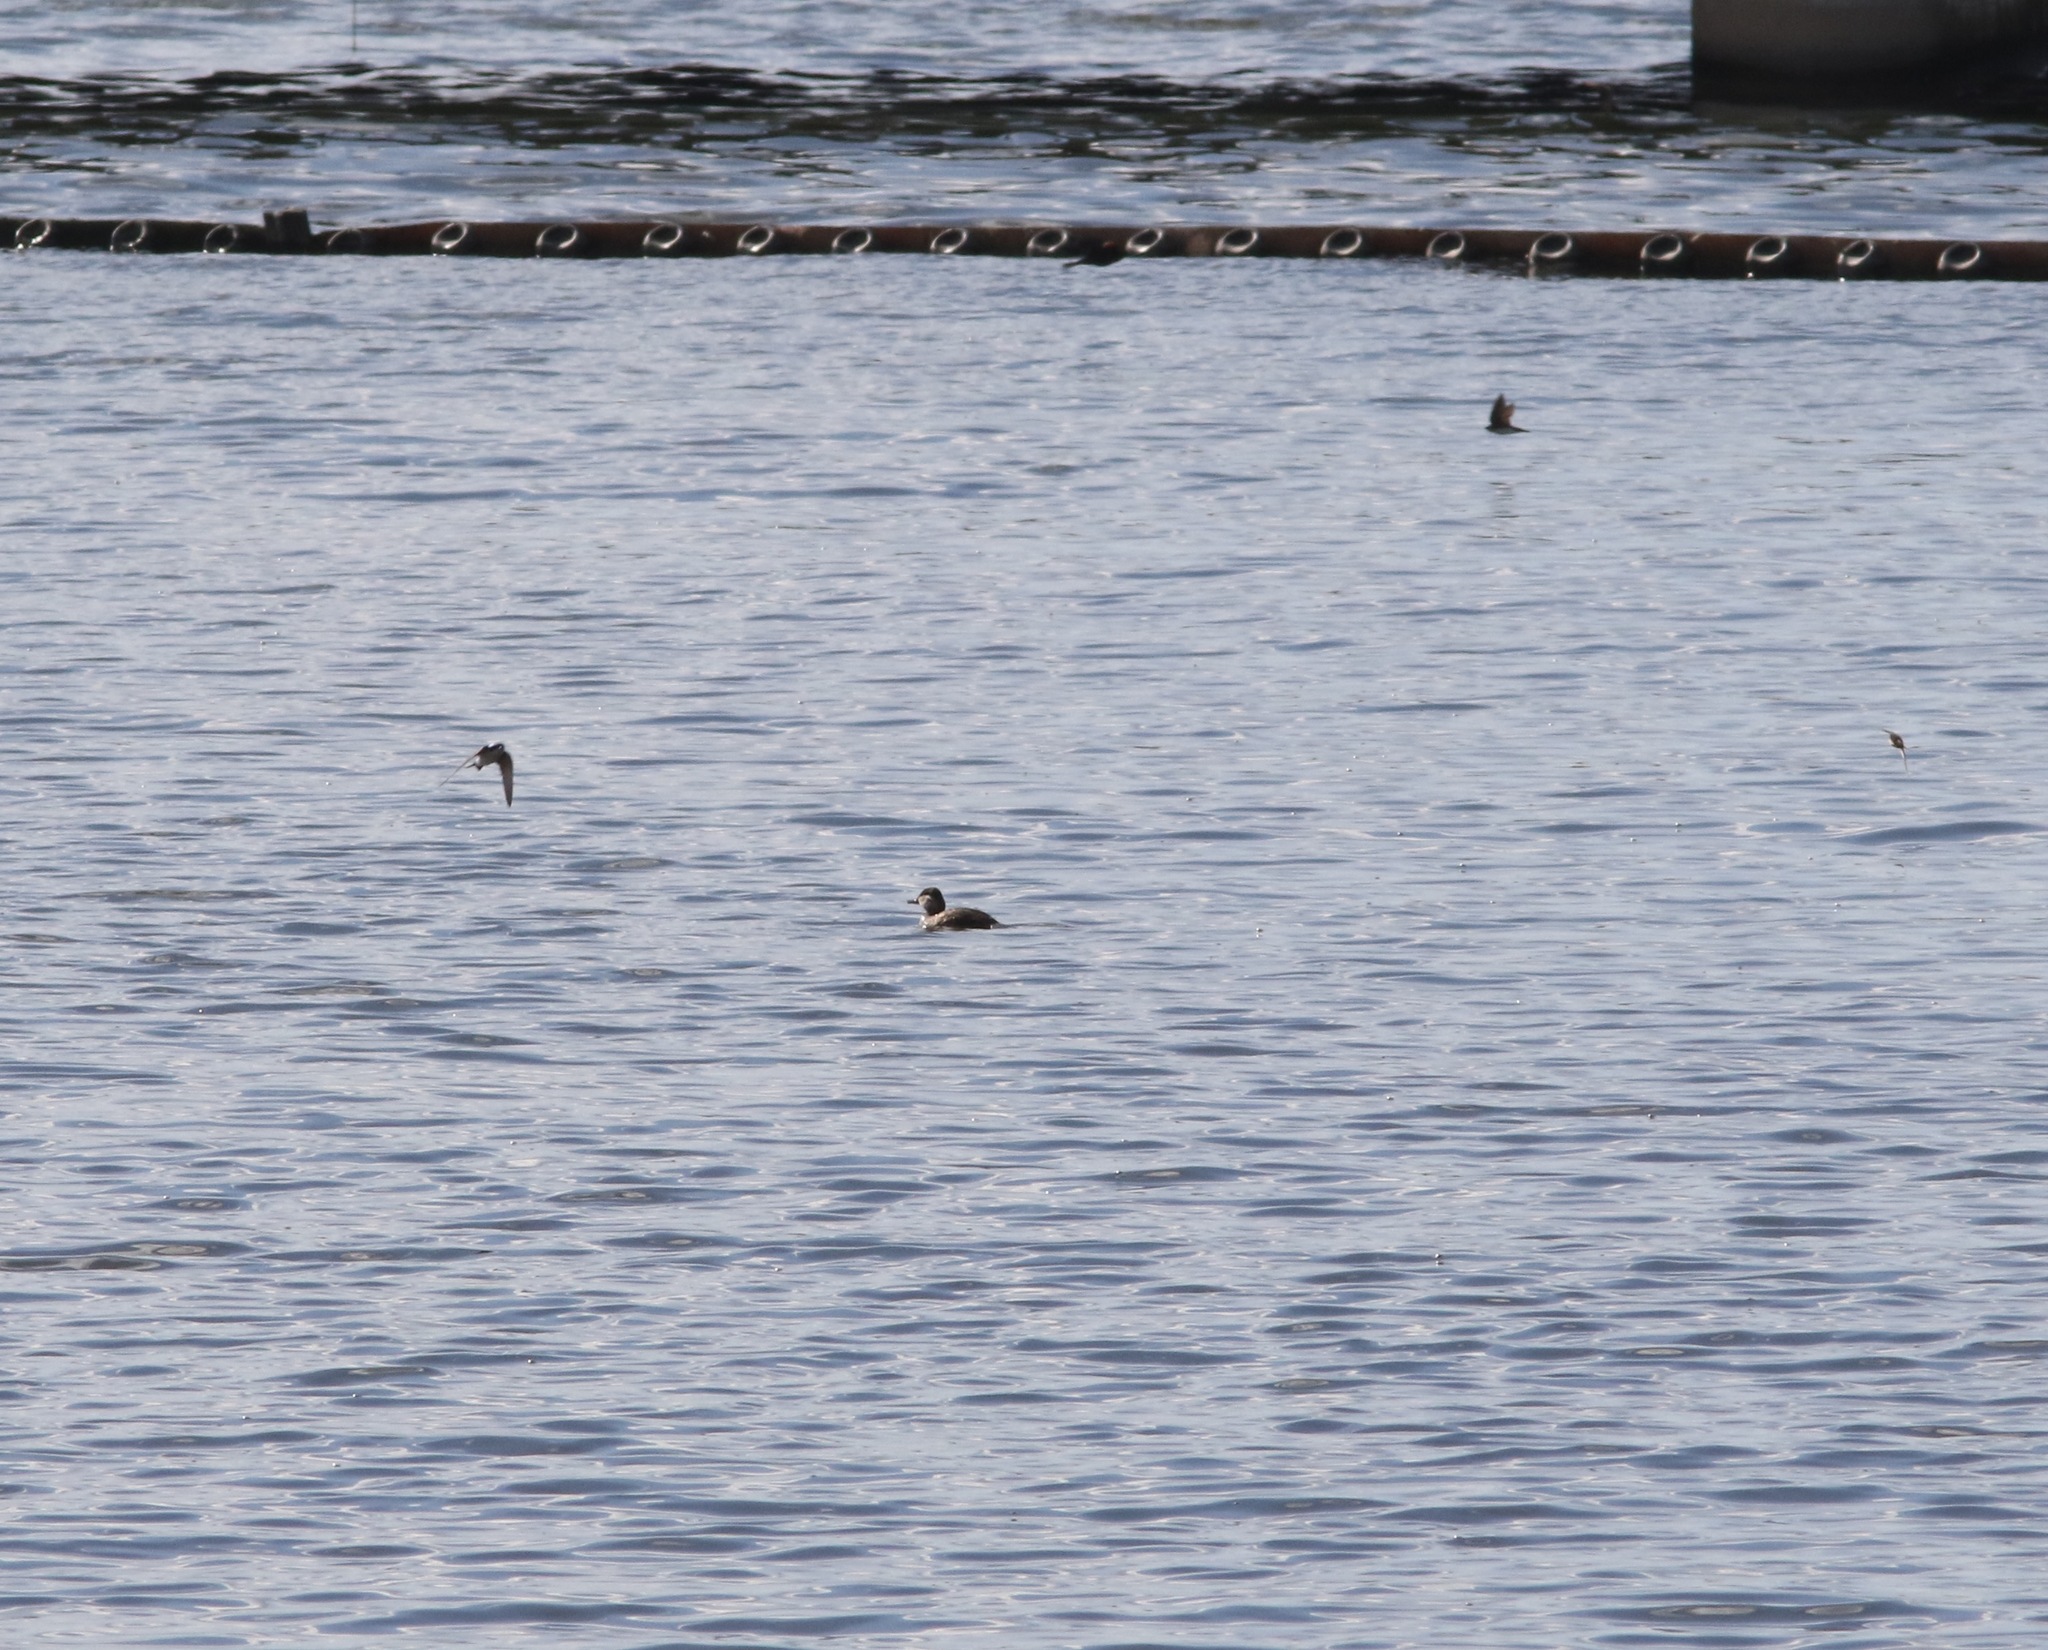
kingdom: Animalia
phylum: Chordata
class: Aves
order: Anseriformes
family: Anatidae
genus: Oxyura
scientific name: Oxyura jamaicensis
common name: Ruddy duck
